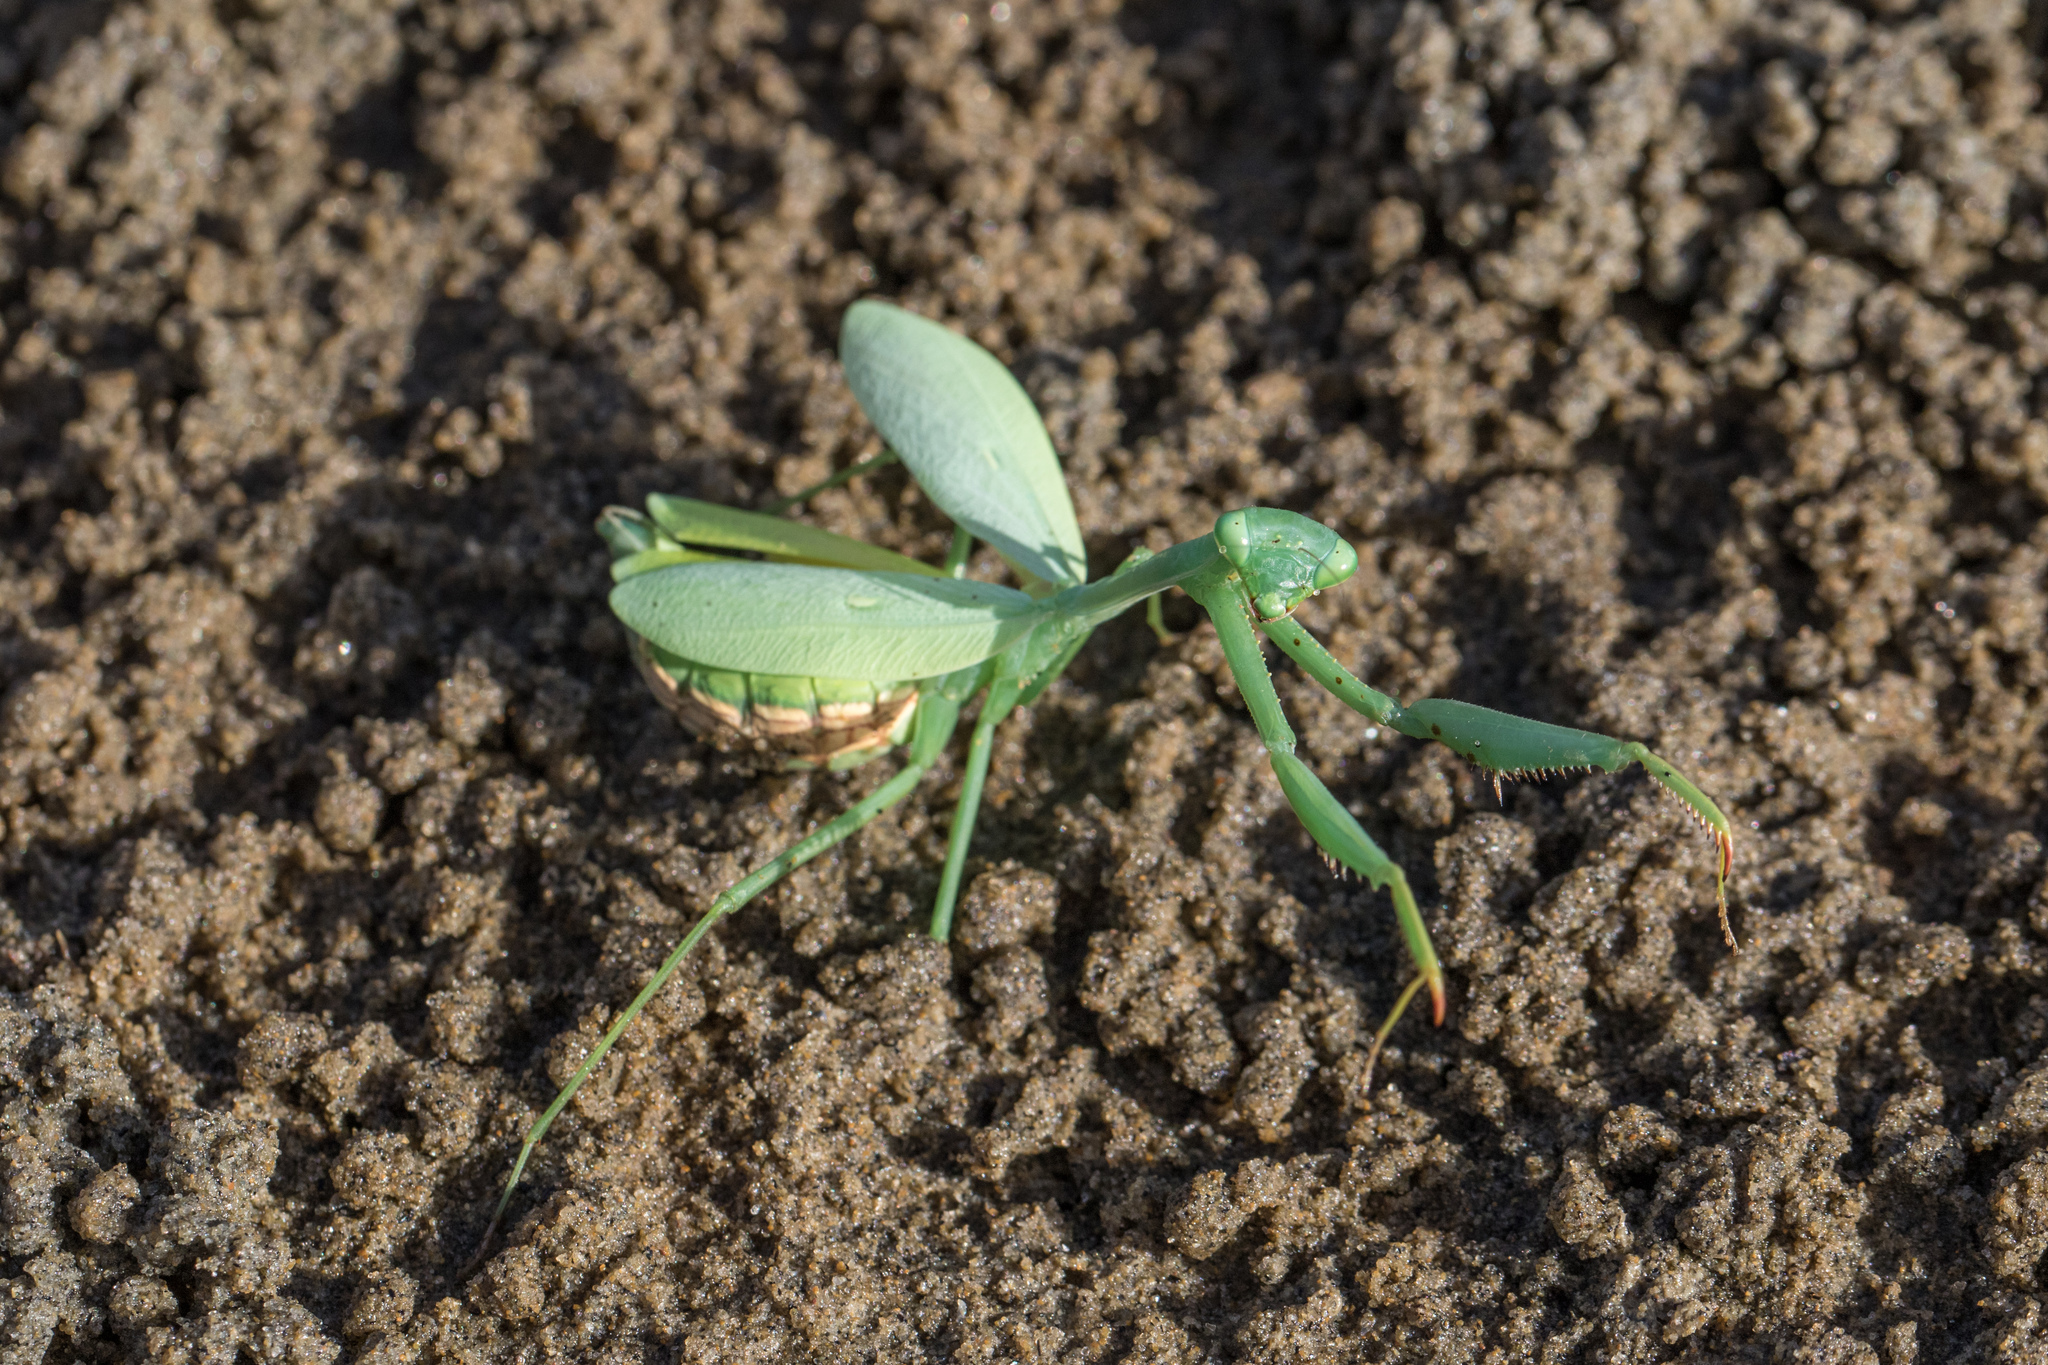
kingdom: Animalia
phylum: Arthropoda
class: Insecta
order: Mantodea
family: Miomantidae
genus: Miomantis
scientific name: Miomantis caffra
